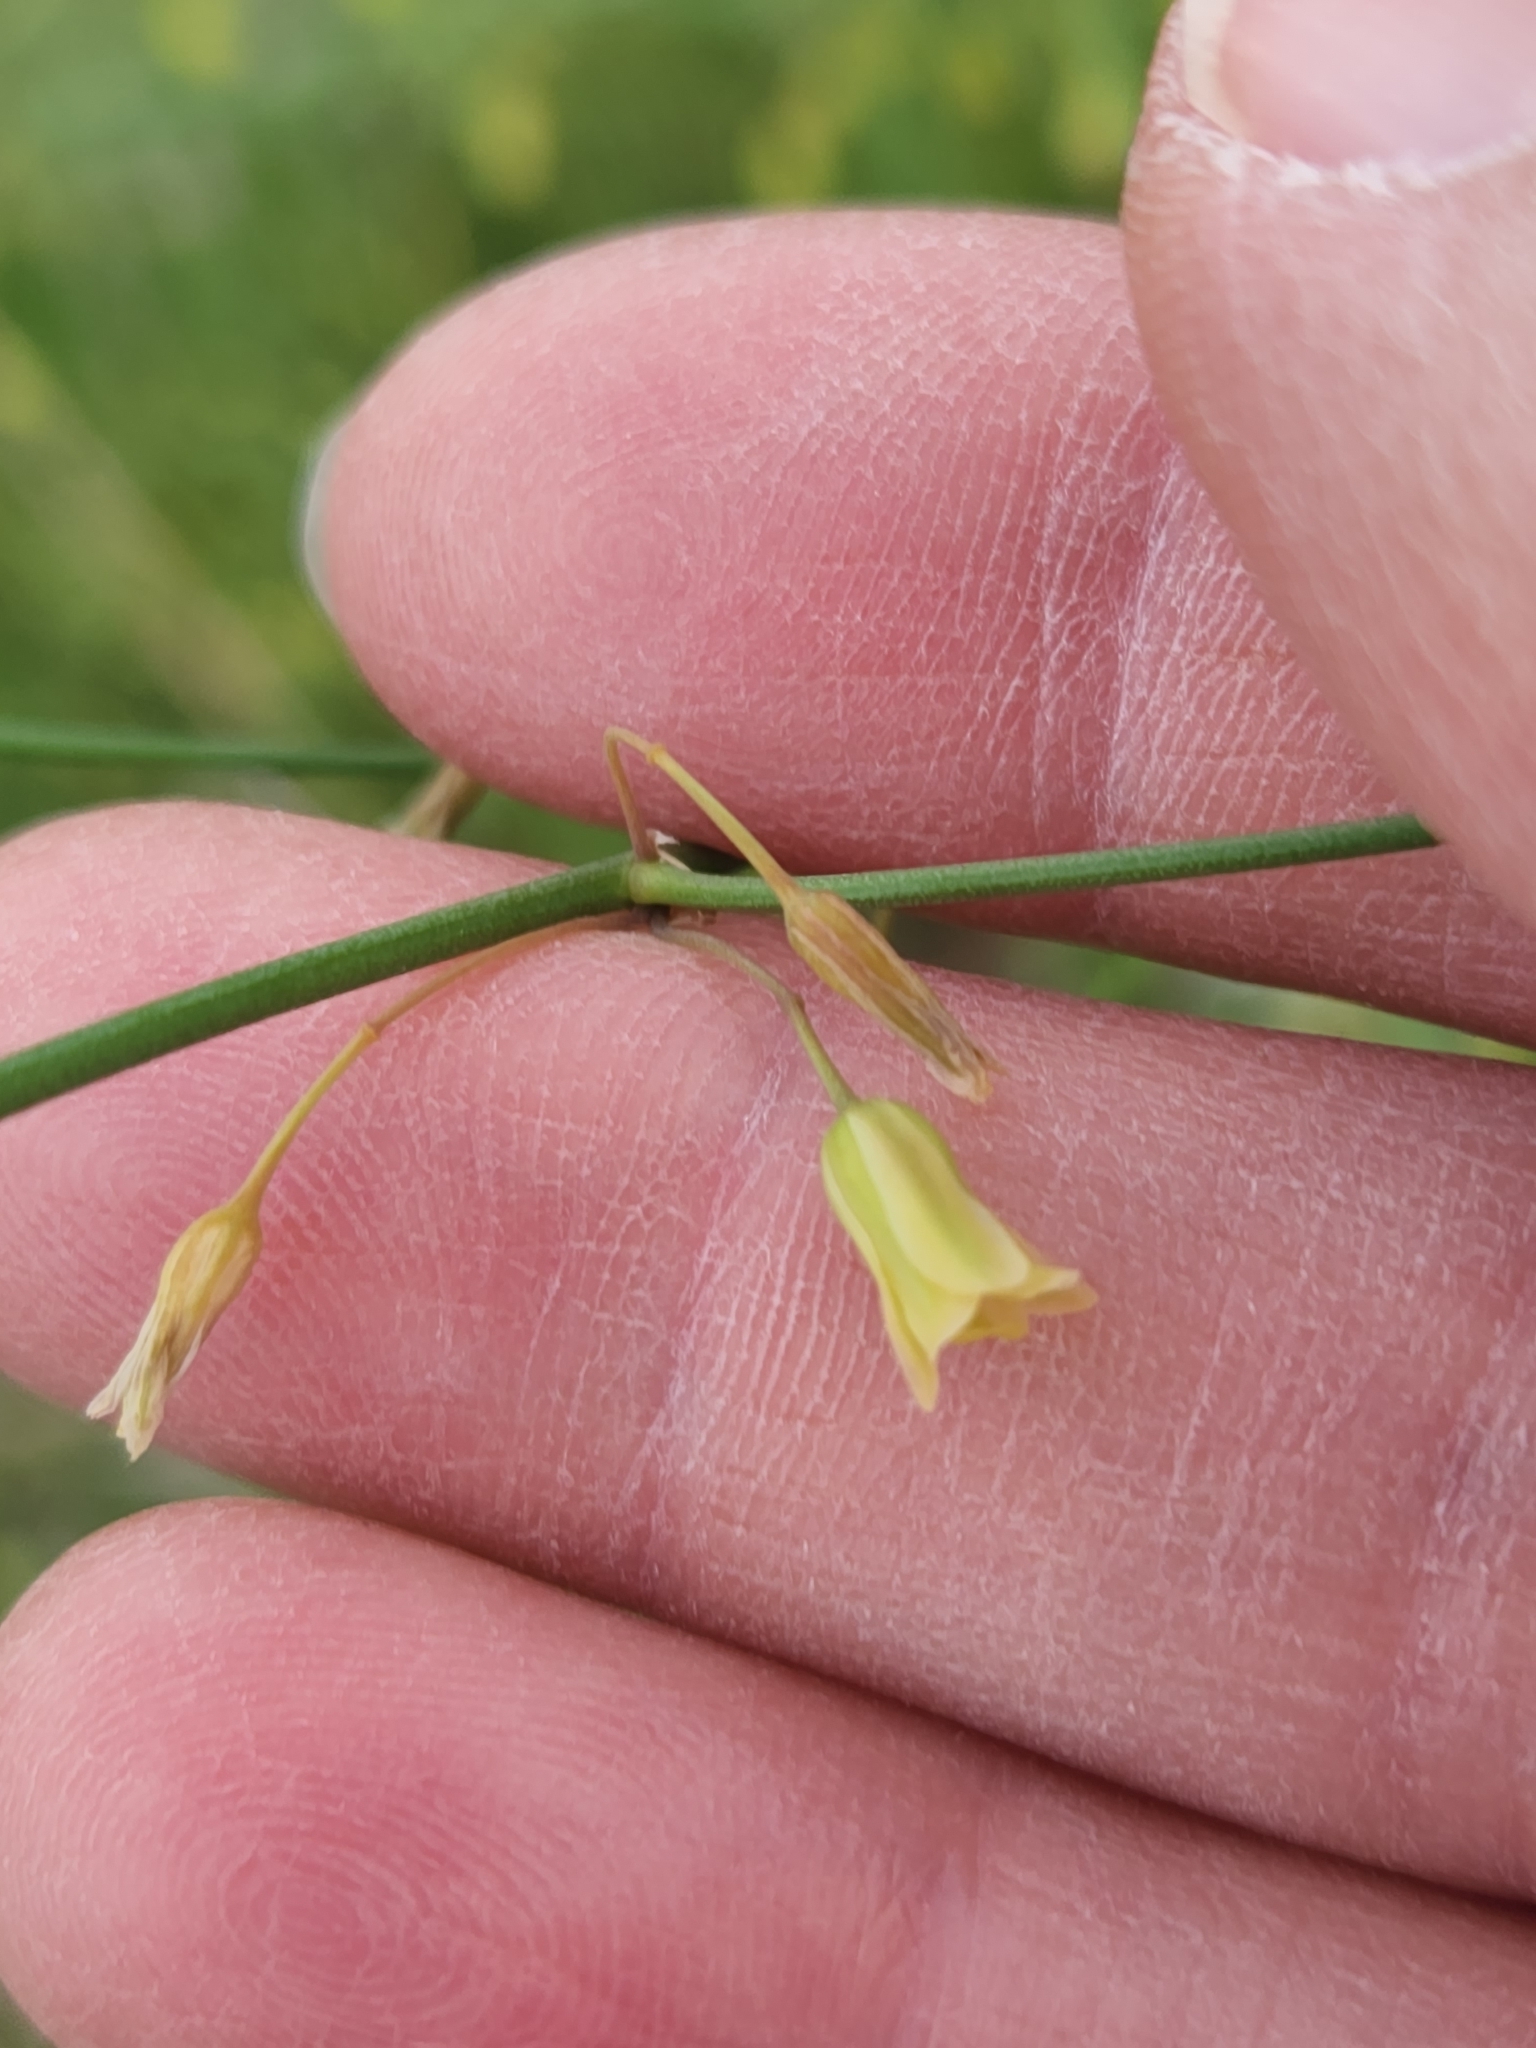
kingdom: Plantae
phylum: Tracheophyta
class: Liliopsida
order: Asparagales
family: Asparagaceae
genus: Asparagus
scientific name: Asparagus officinalis
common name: Garden asparagus
